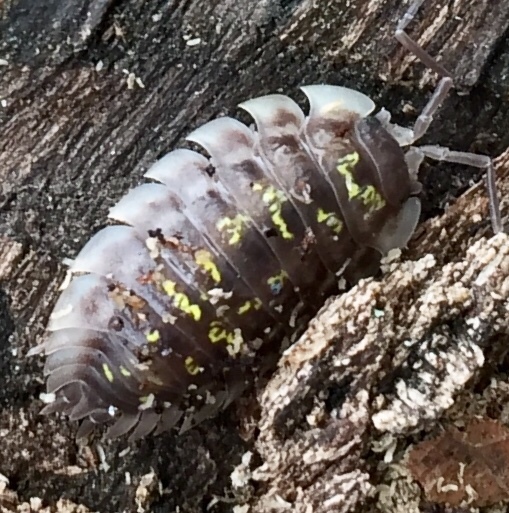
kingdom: Animalia
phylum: Arthropoda
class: Malacostraca
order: Isopoda
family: Oniscidae
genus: Oniscus
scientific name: Oniscus asellus
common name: Common shiny woodlouse
